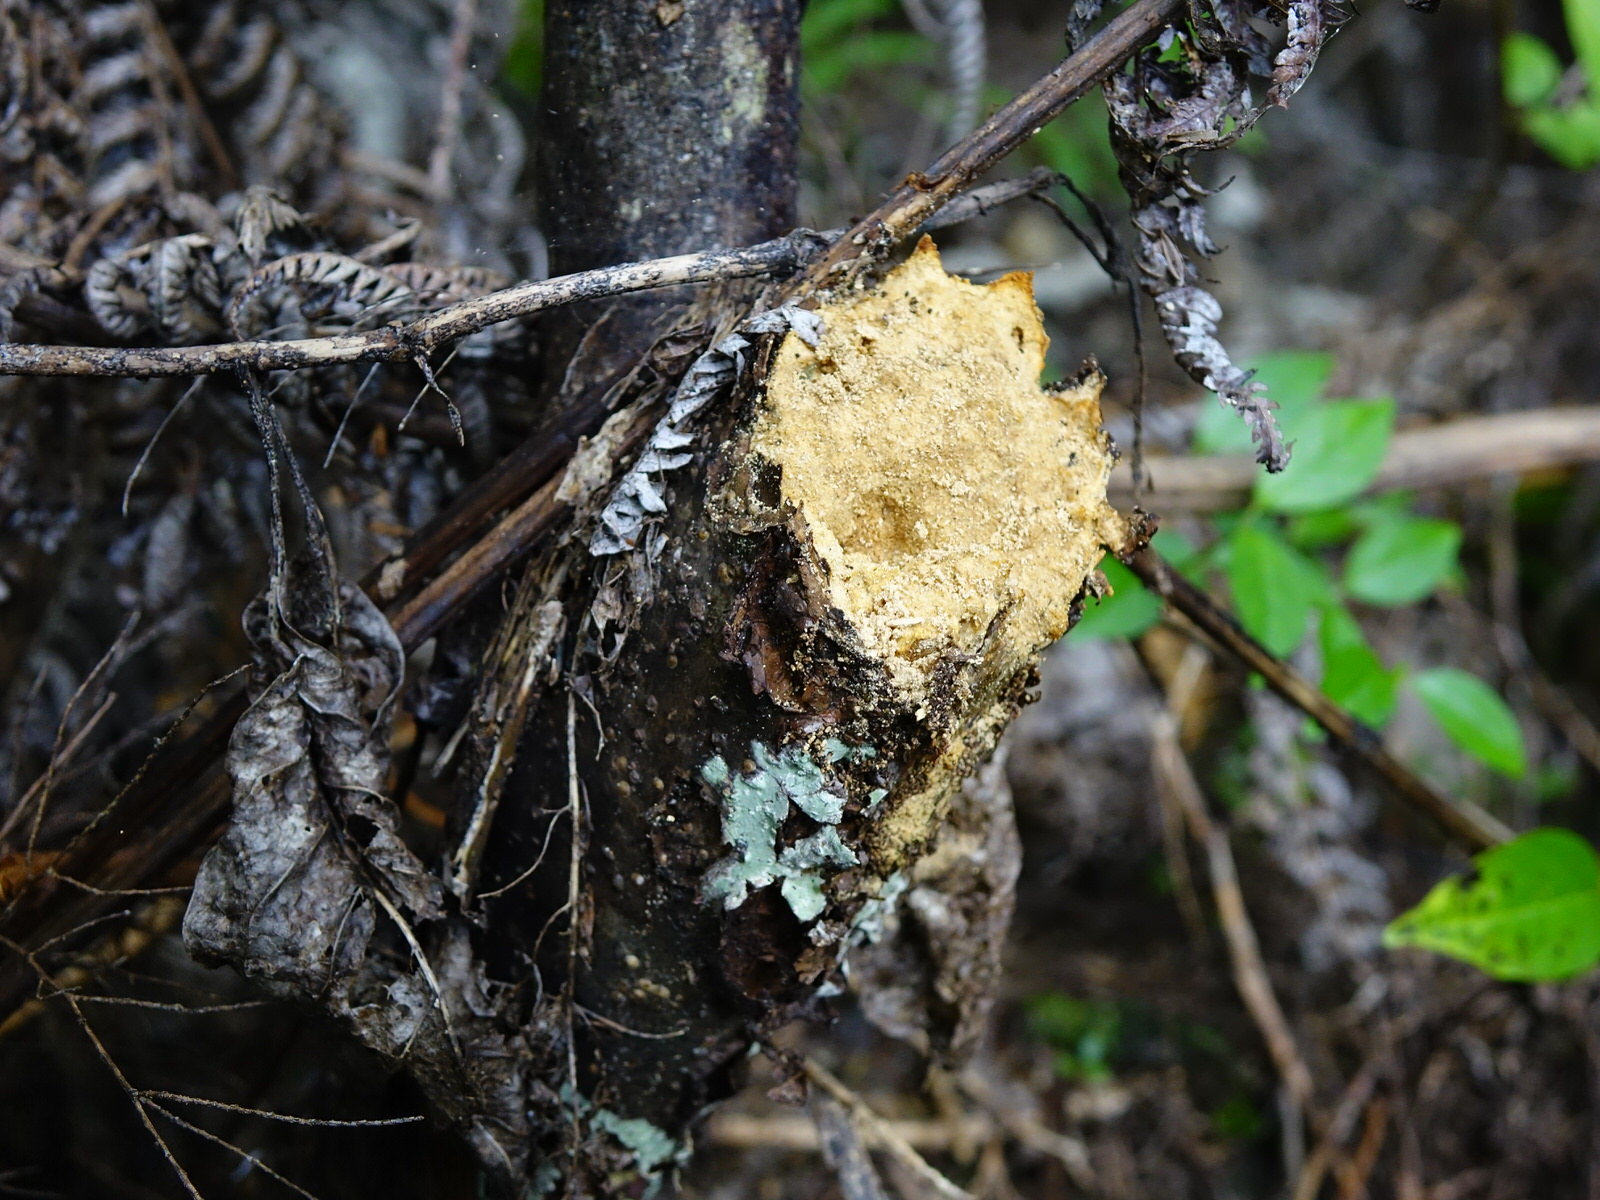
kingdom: Plantae
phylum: Tracheophyta
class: Magnoliopsida
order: Gentianales
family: Rubiaceae
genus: Coprosma
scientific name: Coprosma autumnalis
